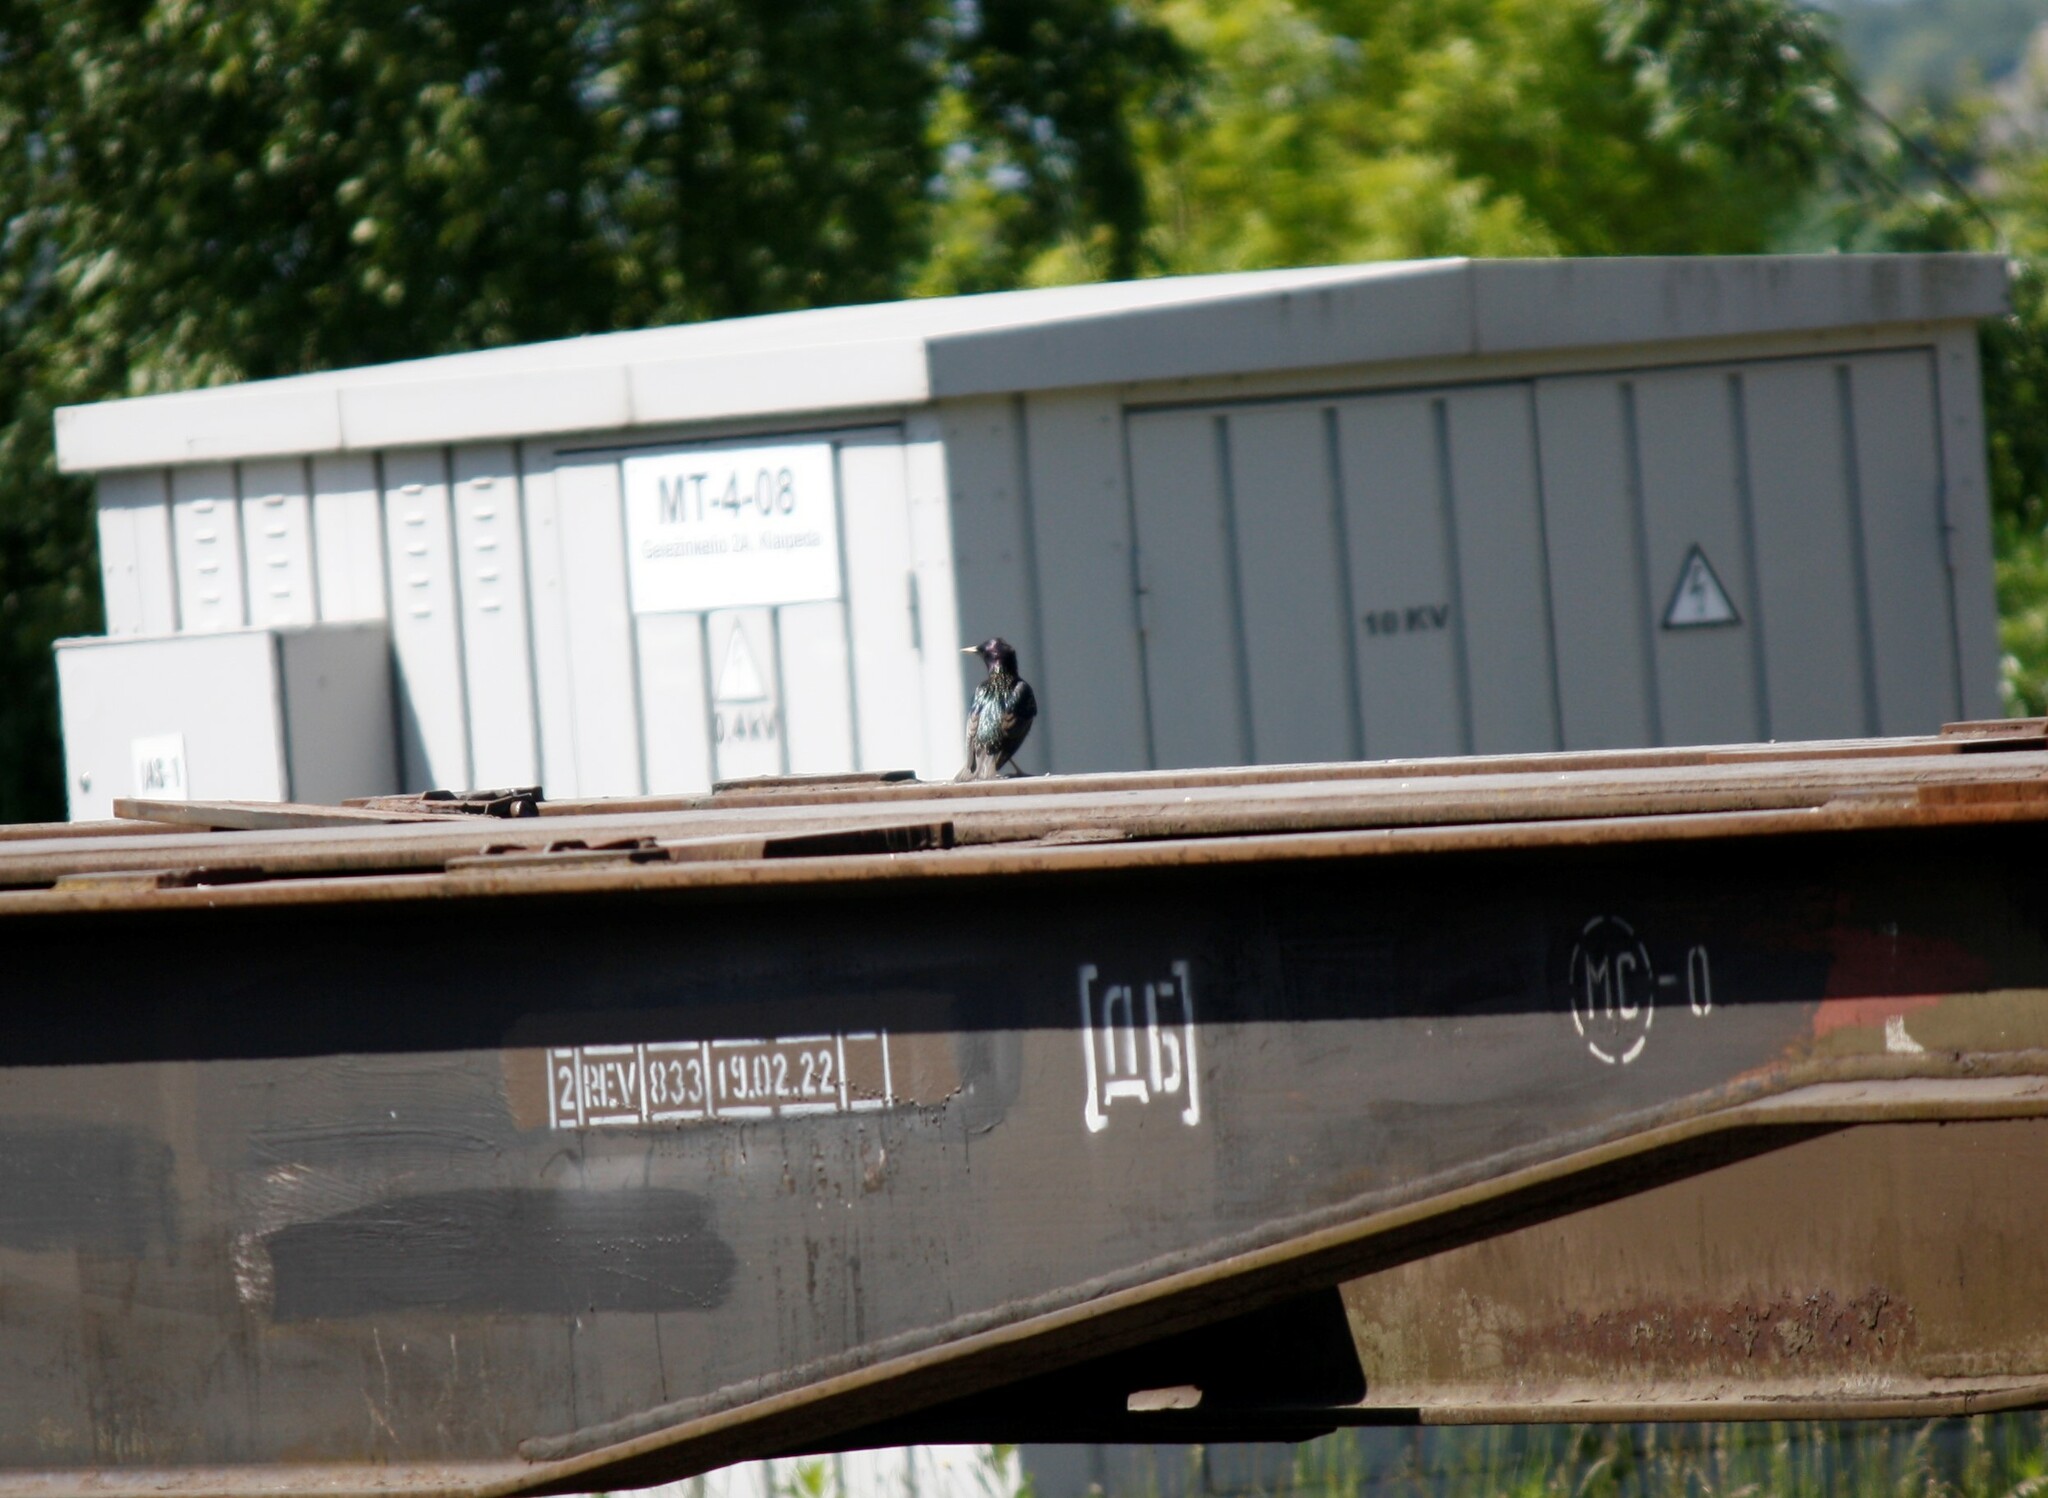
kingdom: Animalia
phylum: Chordata
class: Aves
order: Passeriformes
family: Sturnidae
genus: Sturnus
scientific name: Sturnus vulgaris
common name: Common starling
